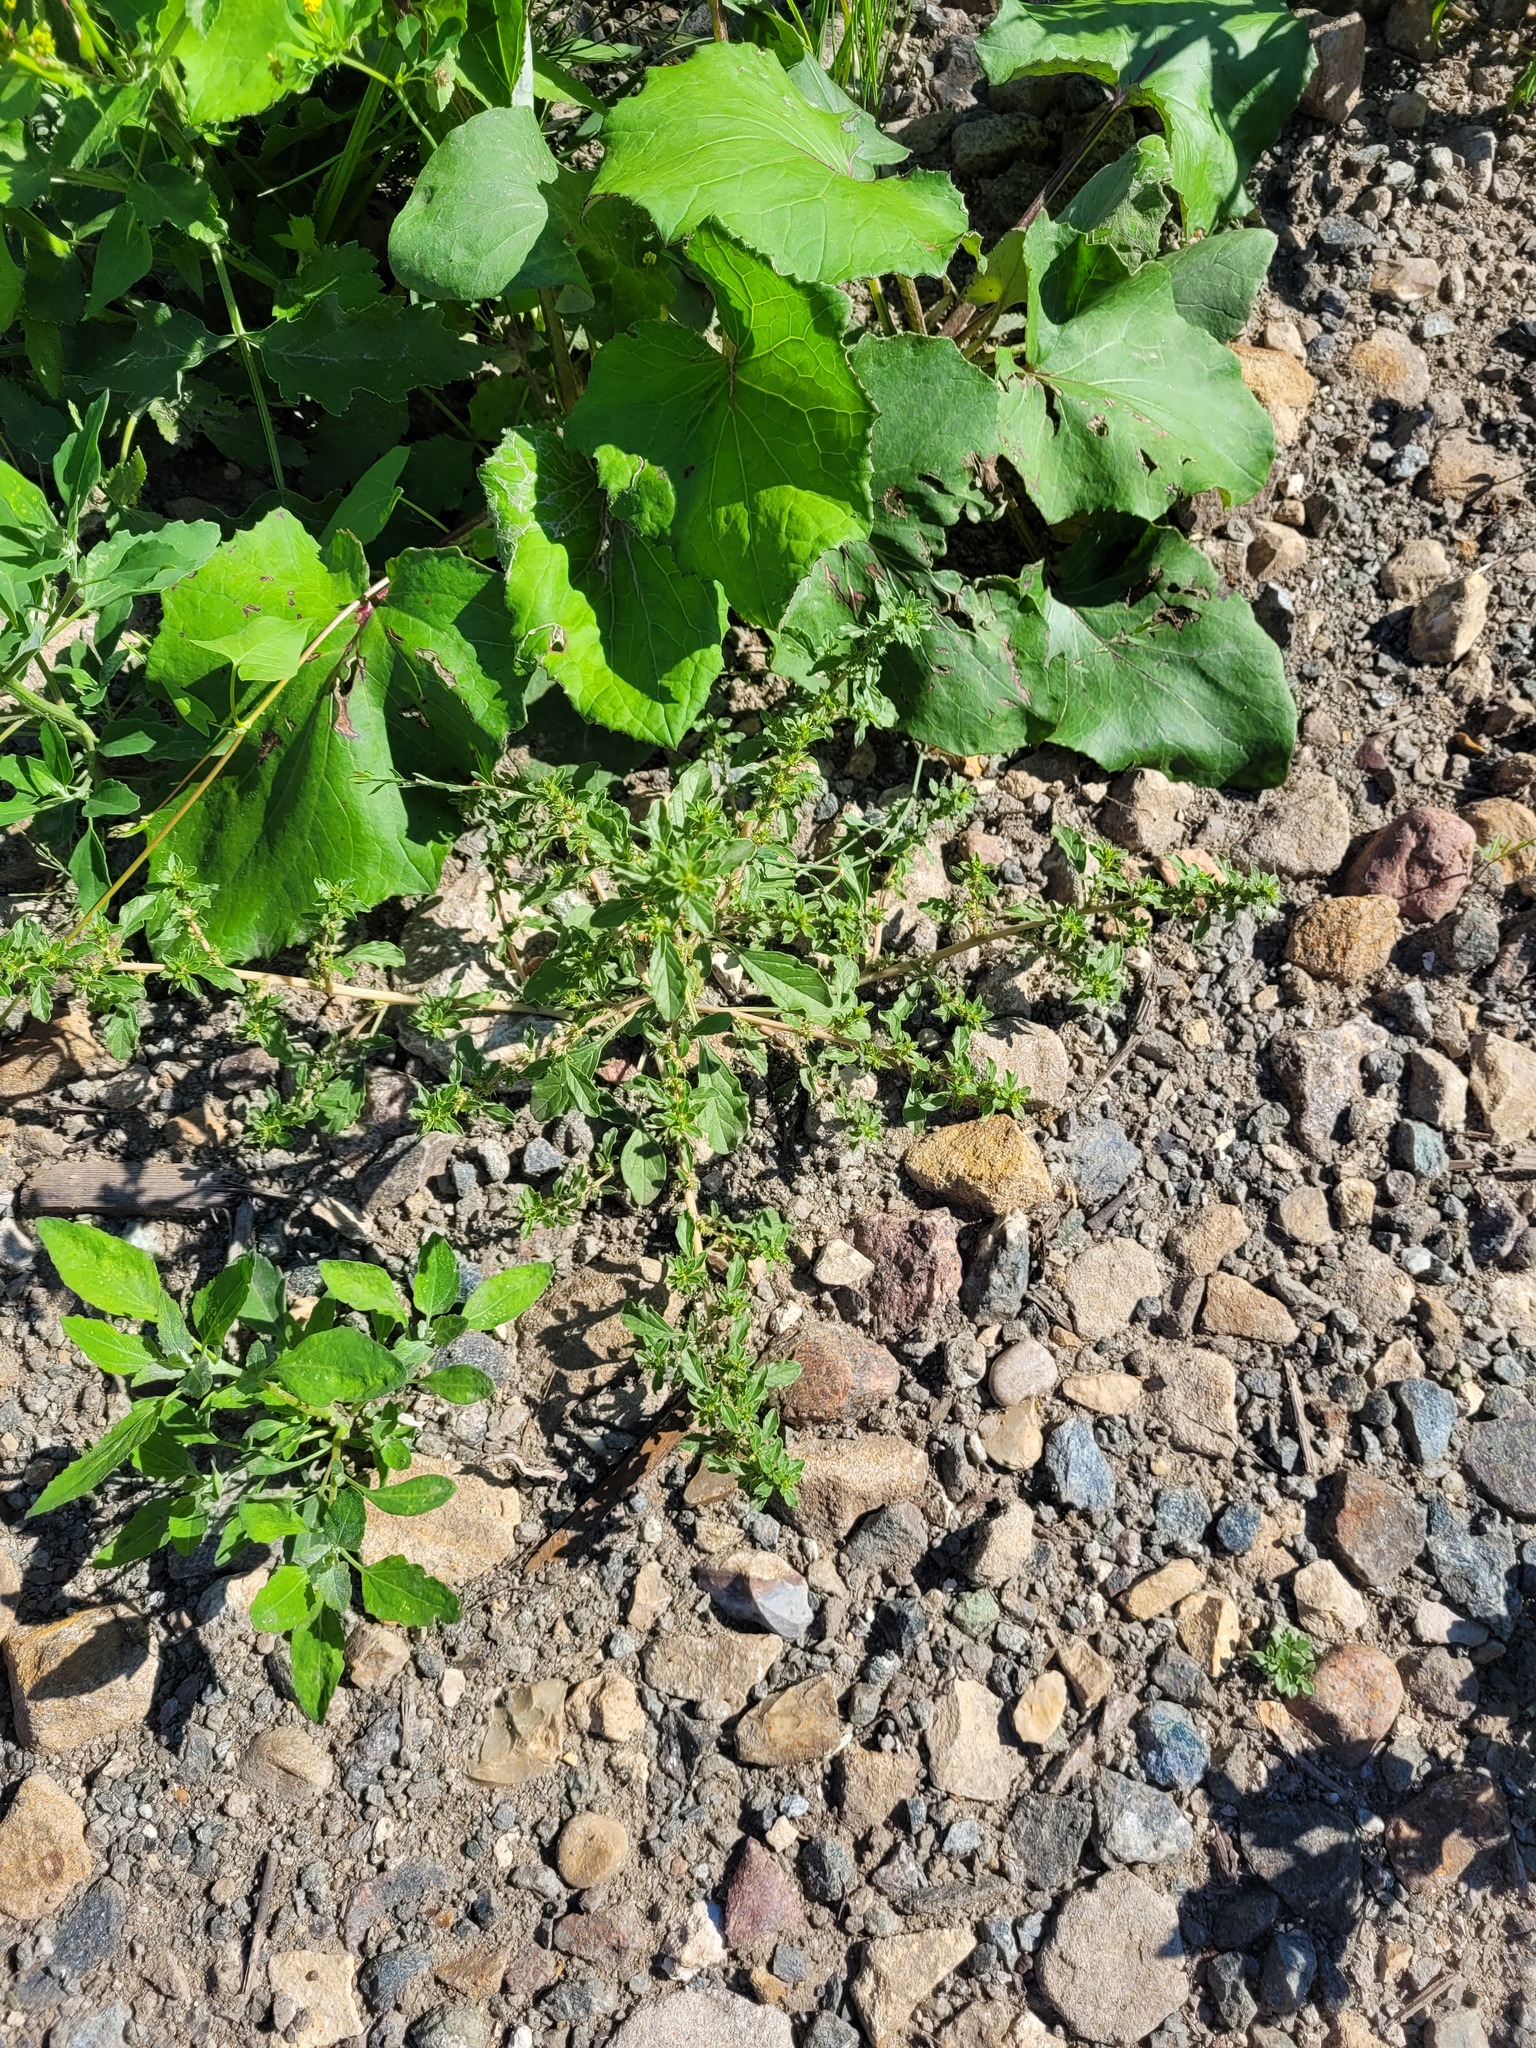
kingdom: Plantae
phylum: Tracheophyta
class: Magnoliopsida
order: Caryophyllales
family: Amaranthaceae
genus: Amaranthus
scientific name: Amaranthus albus
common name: White pigweed
